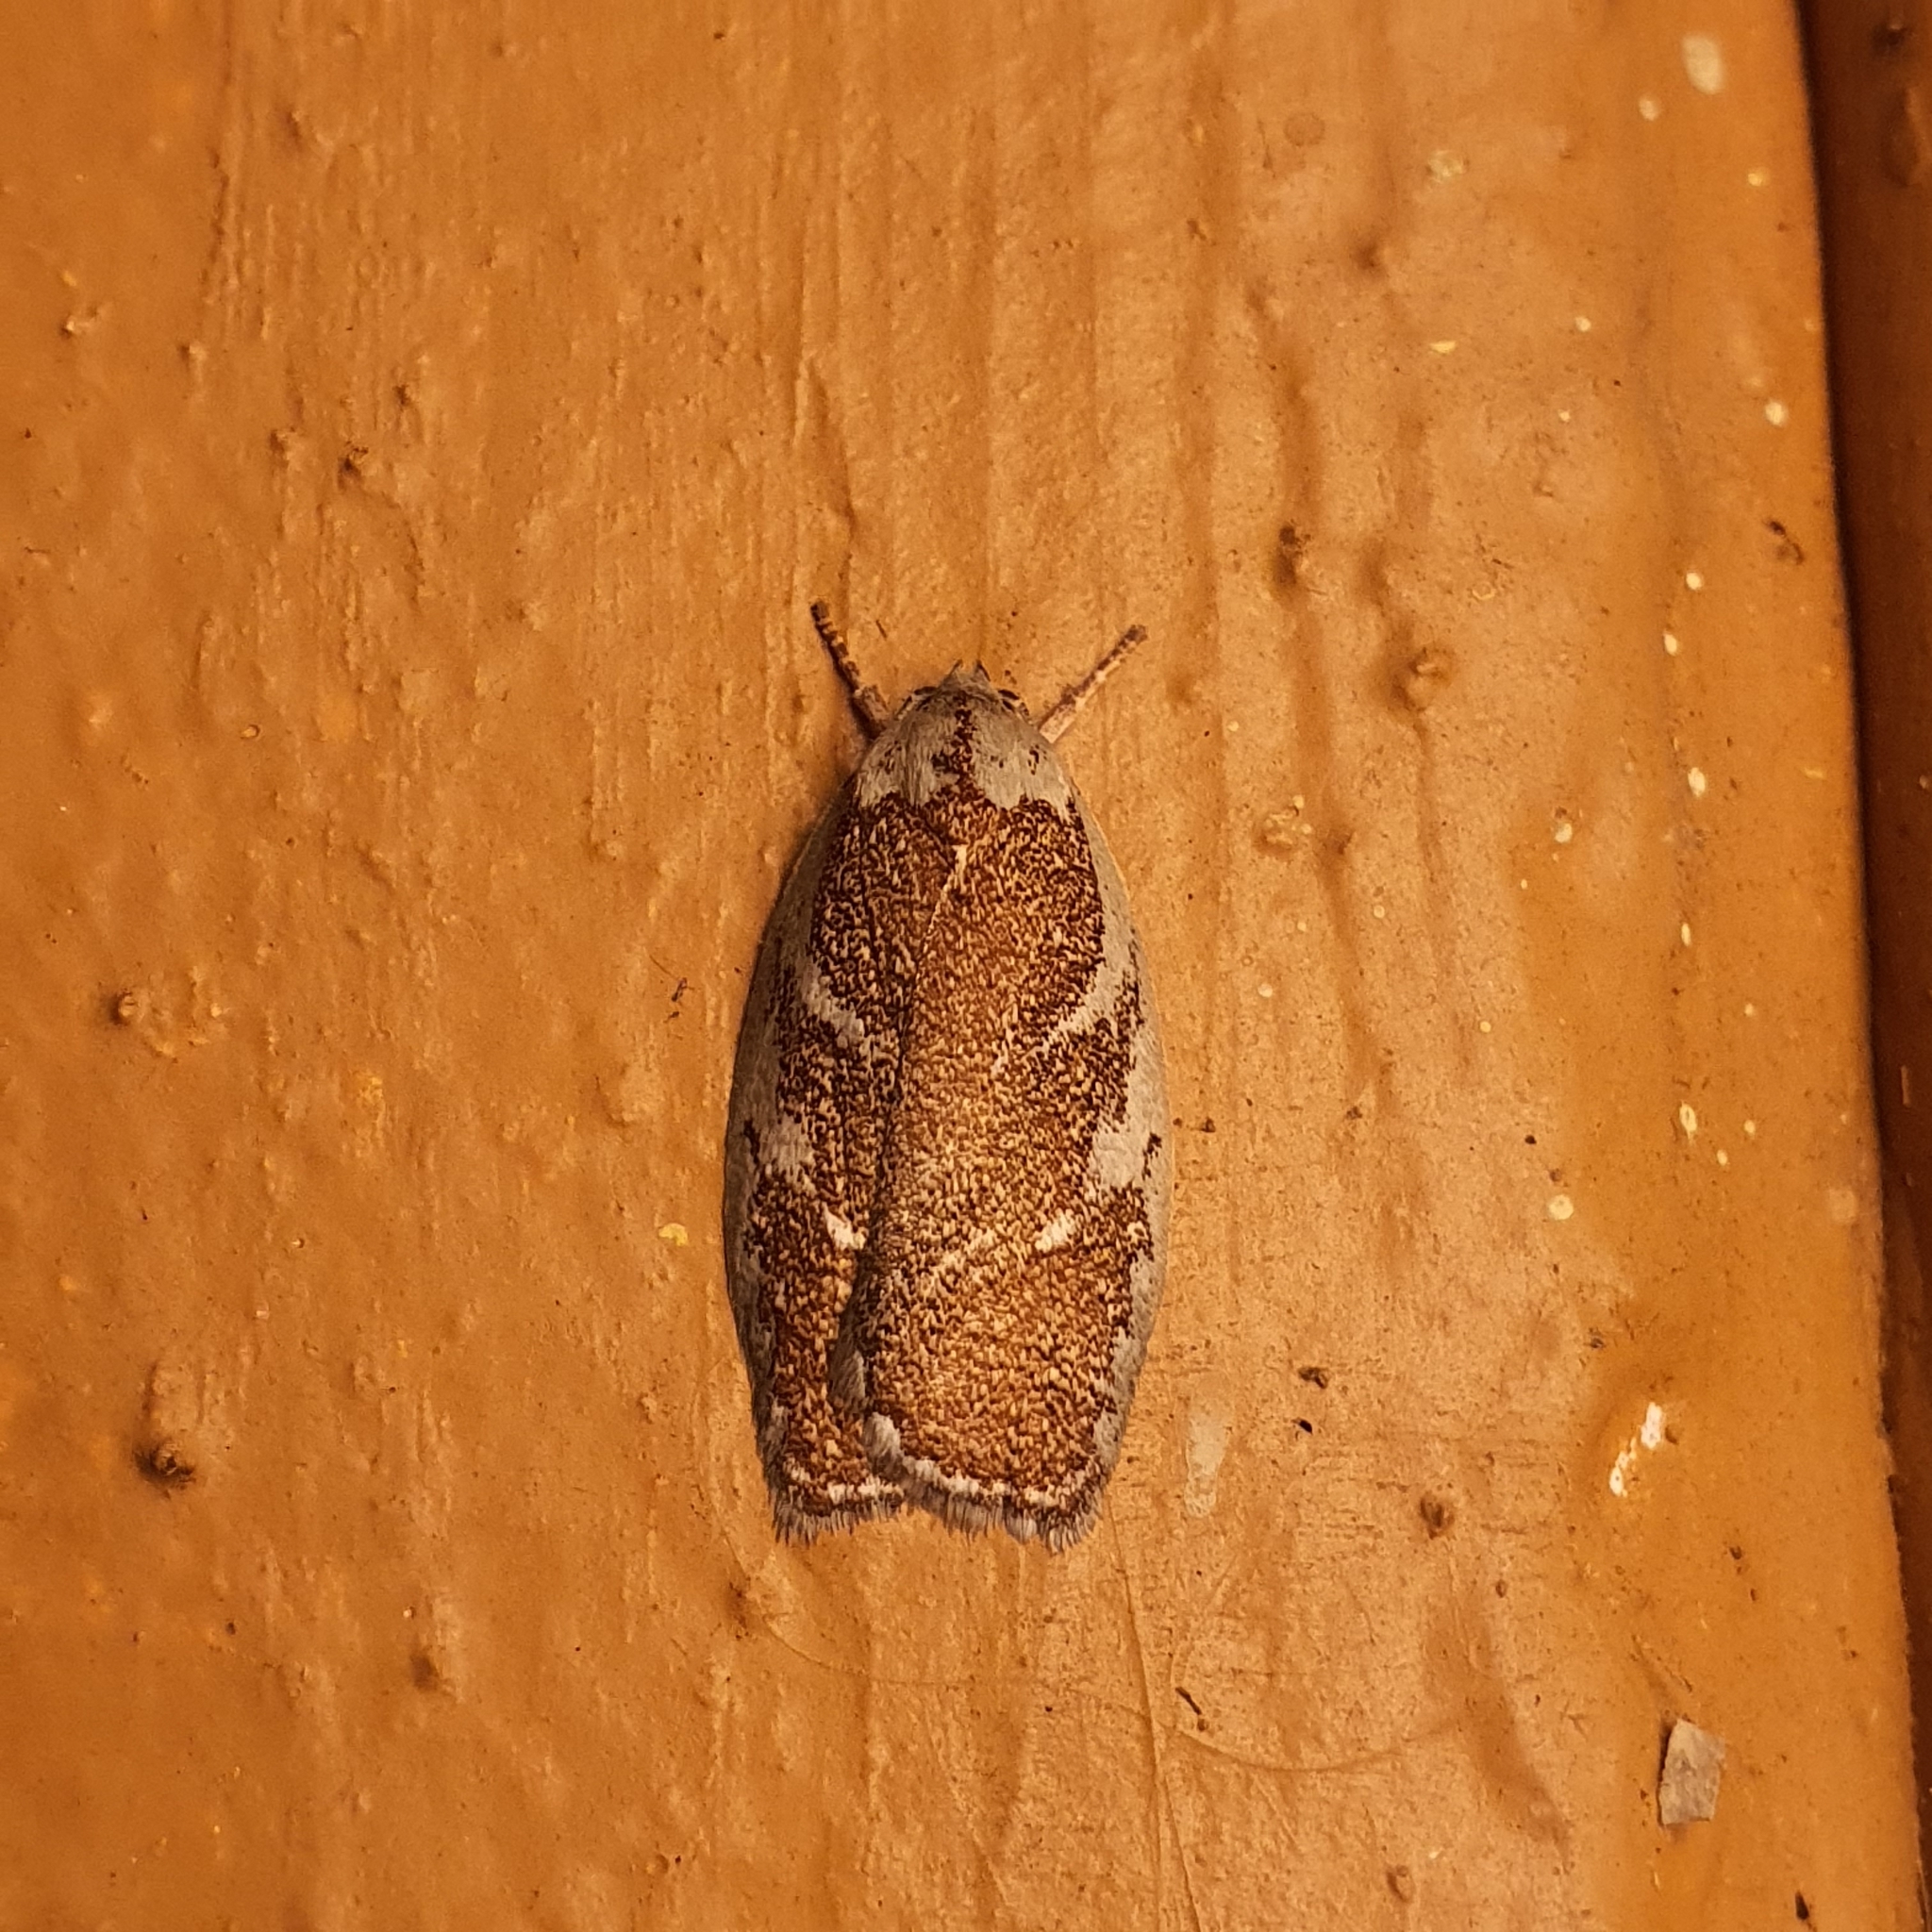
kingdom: Animalia
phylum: Arthropoda
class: Insecta
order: Lepidoptera
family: Oecophoridae
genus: Euchaetis
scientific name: Euchaetis rhizobola
